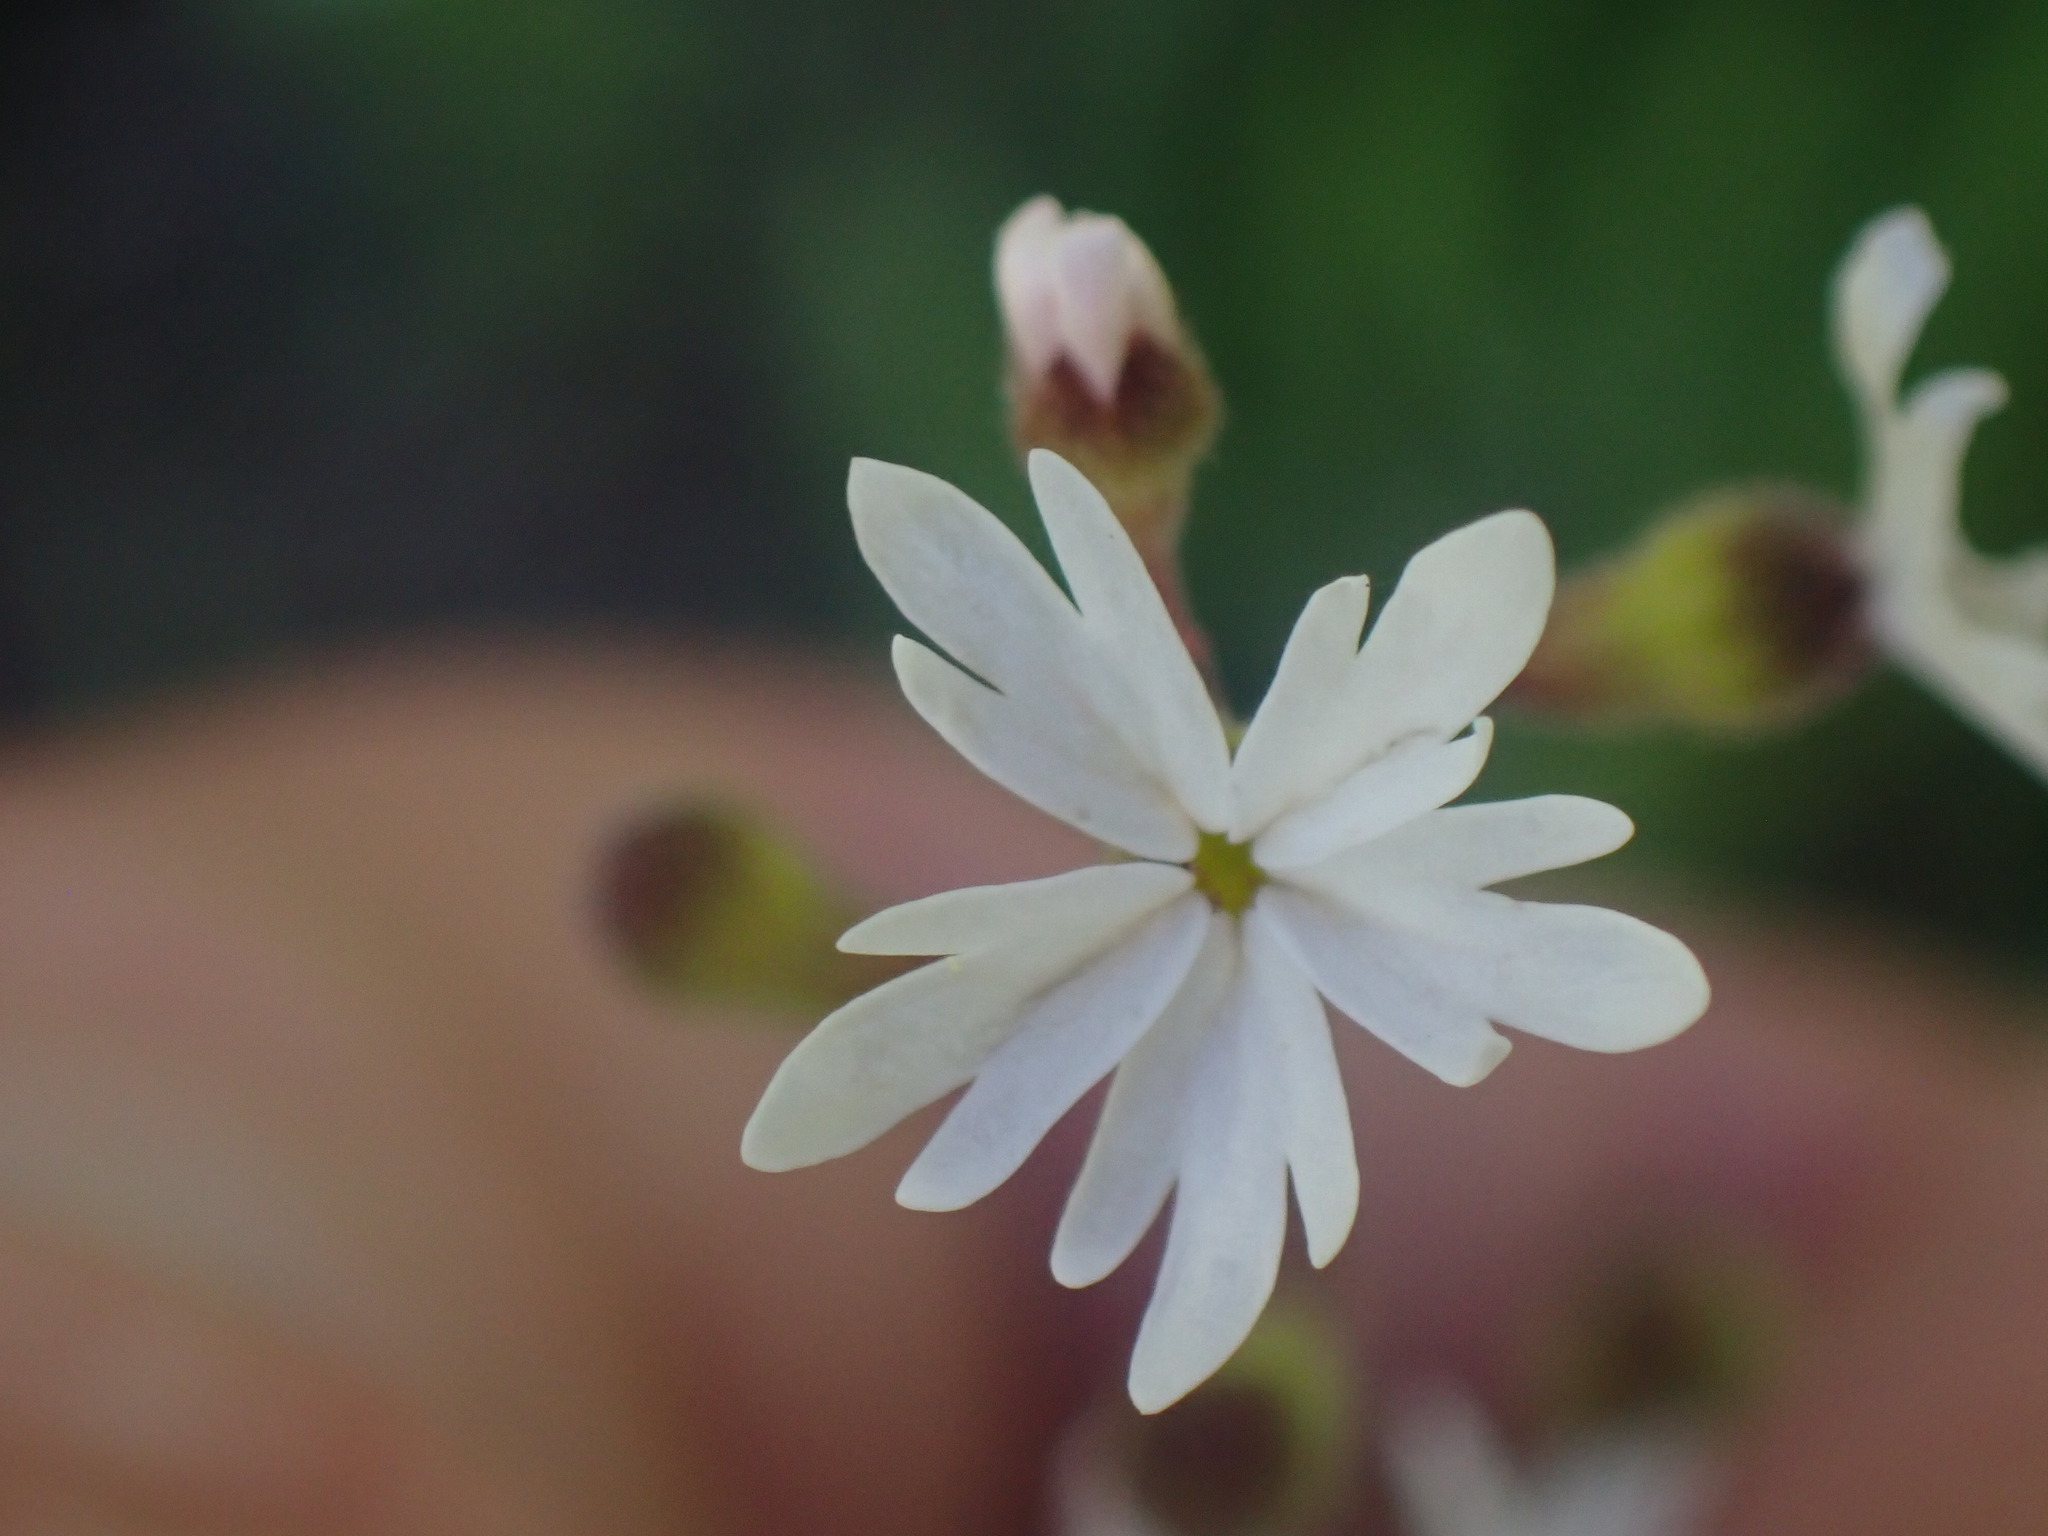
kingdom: Plantae
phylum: Tracheophyta
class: Magnoliopsida
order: Saxifragales
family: Saxifragaceae
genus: Lithophragma
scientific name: Lithophragma parviflorum
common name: Small-flowered fringe-cup
